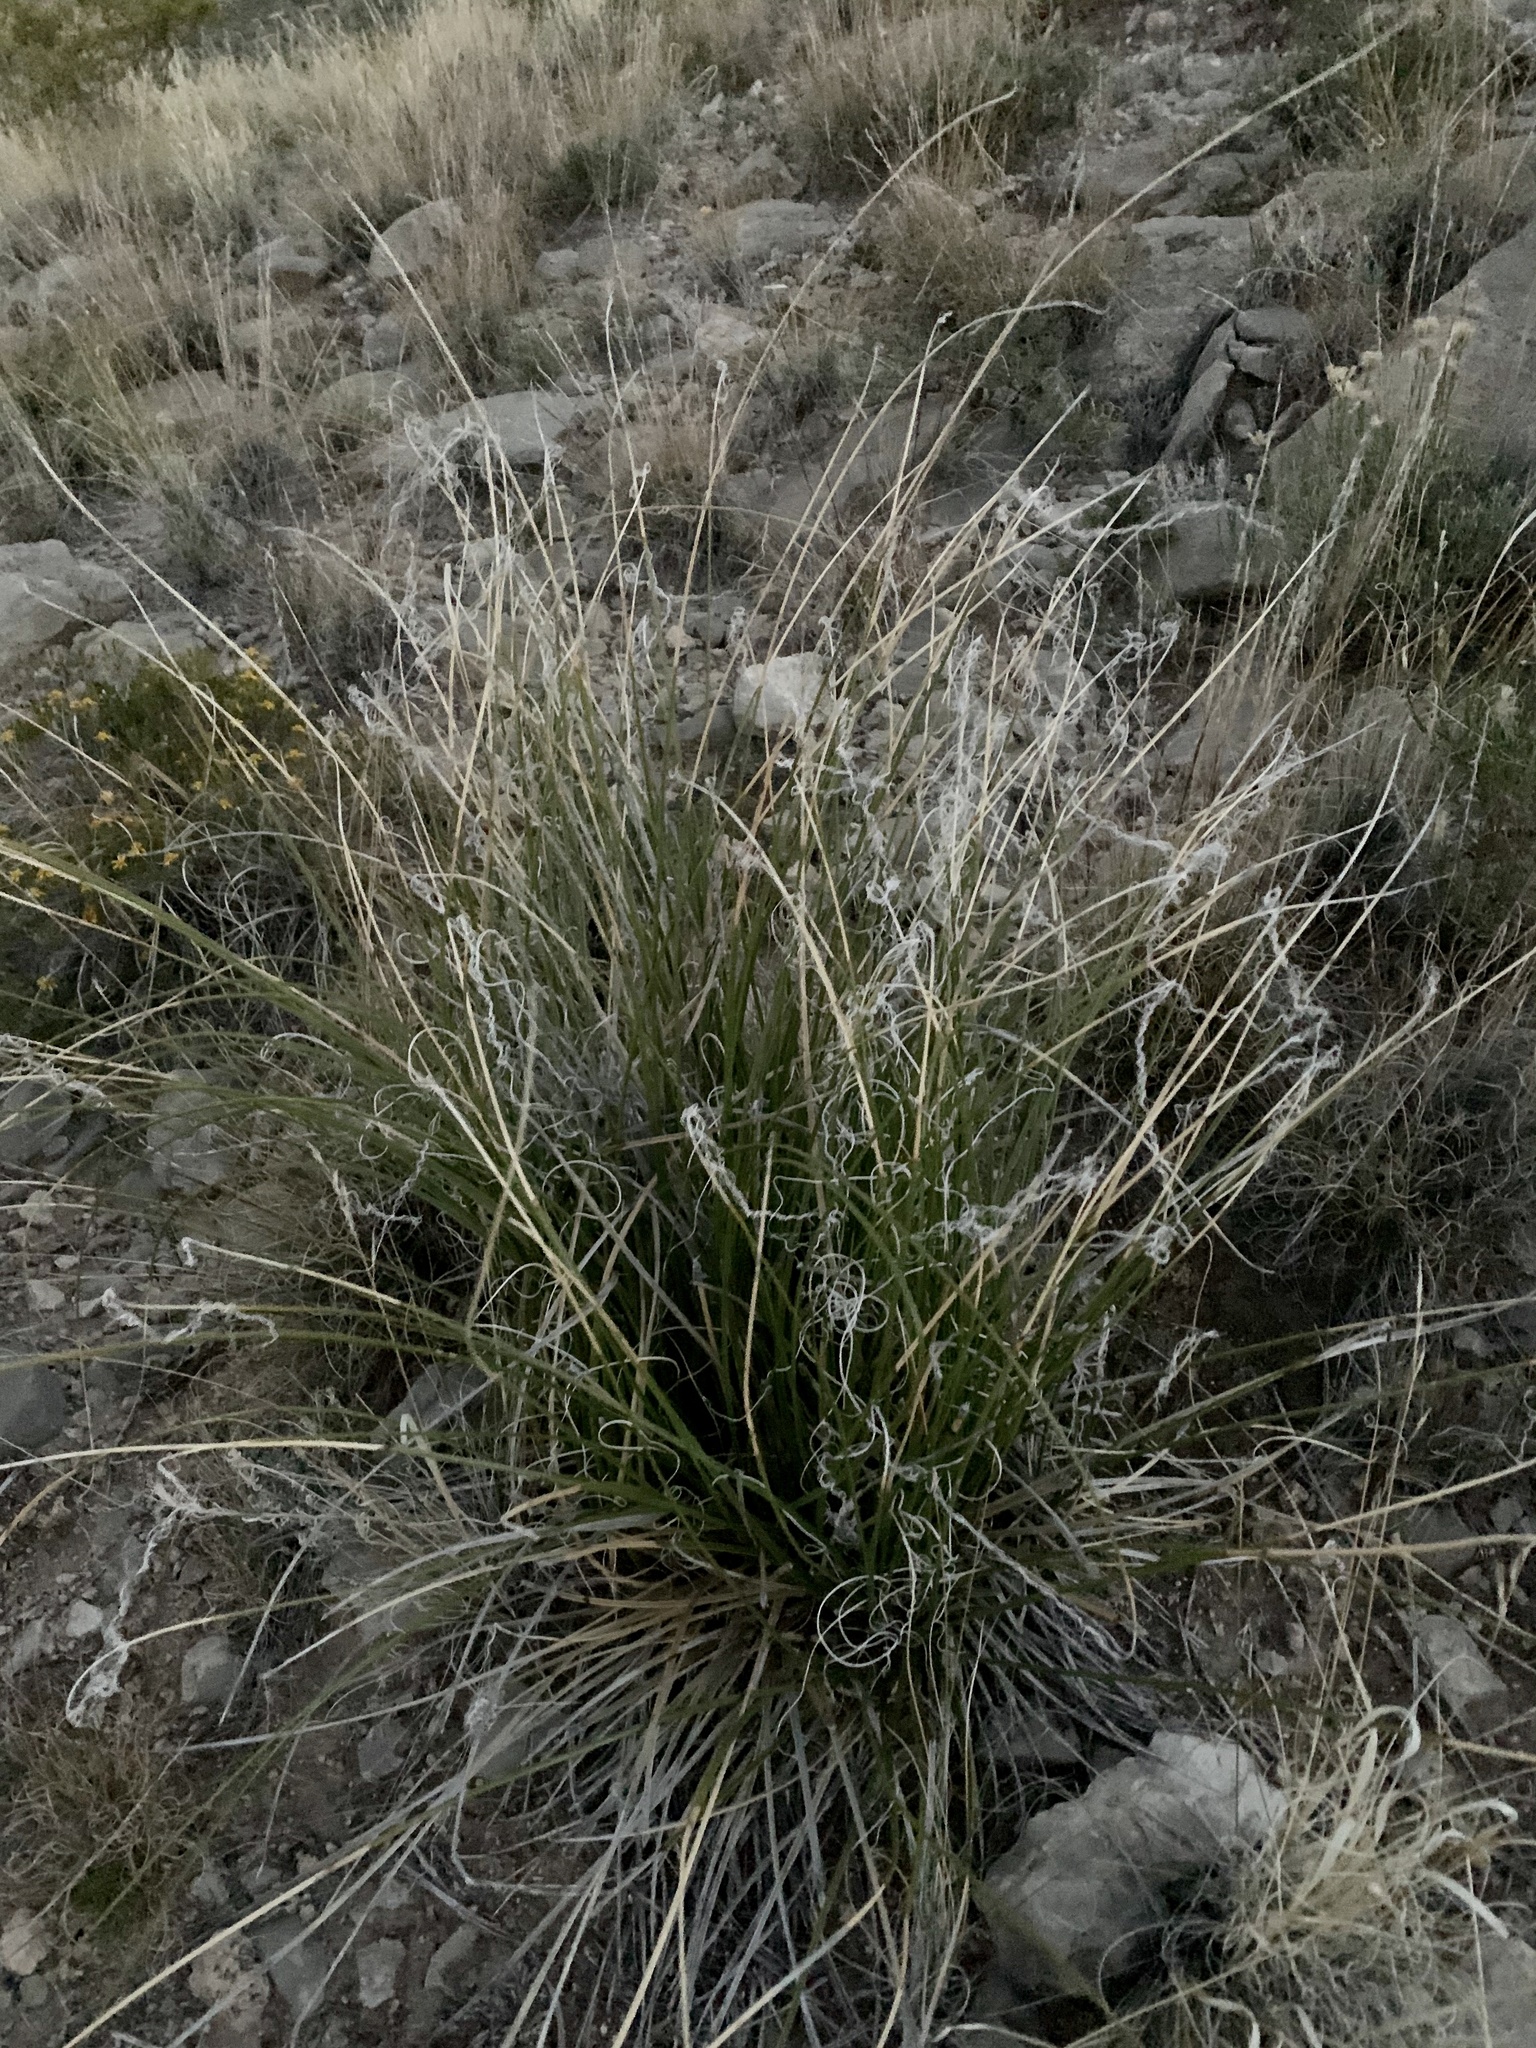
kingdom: Plantae
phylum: Tracheophyta
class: Liliopsida
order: Asparagales
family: Asparagaceae
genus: Nolina
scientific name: Nolina texana
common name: Texas sacahuiste
